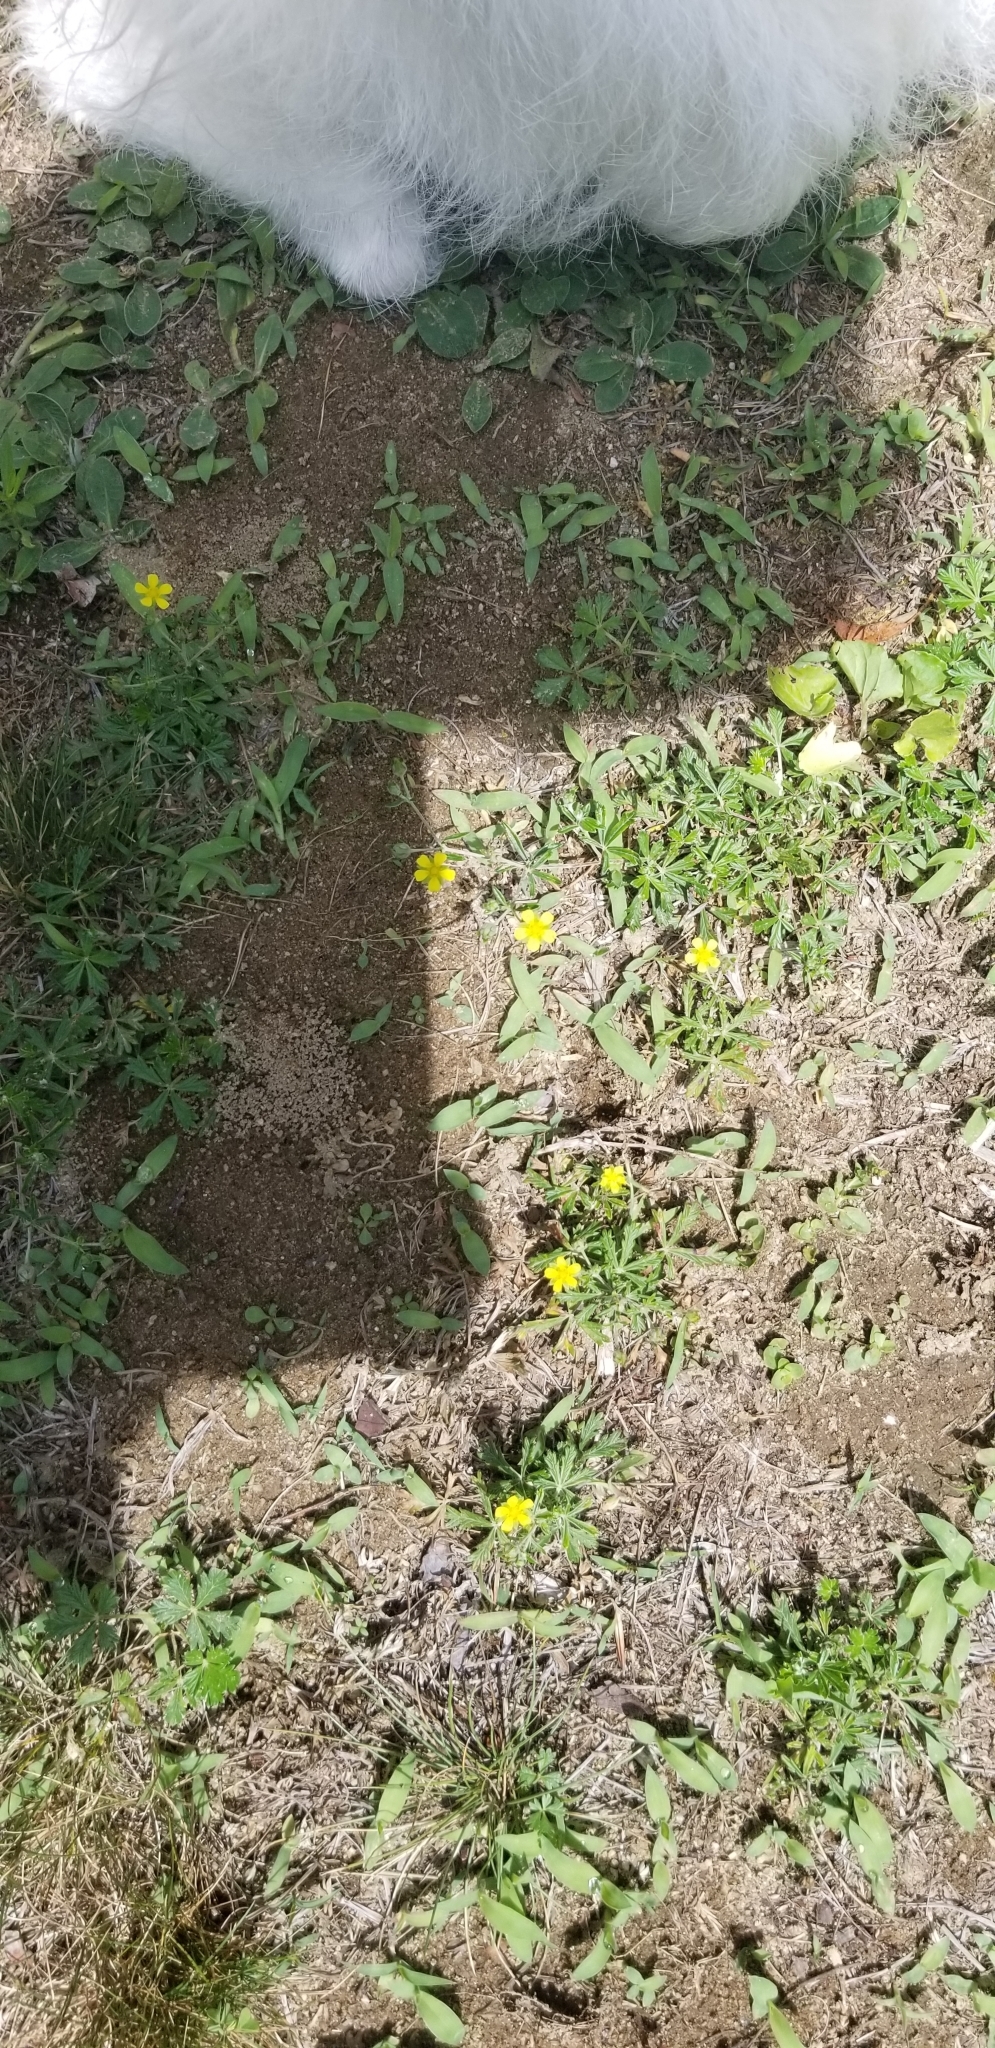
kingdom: Plantae
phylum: Tracheophyta
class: Magnoliopsida
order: Rosales
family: Rosaceae
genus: Potentilla
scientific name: Potentilla argentea
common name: Hoary cinquefoil
